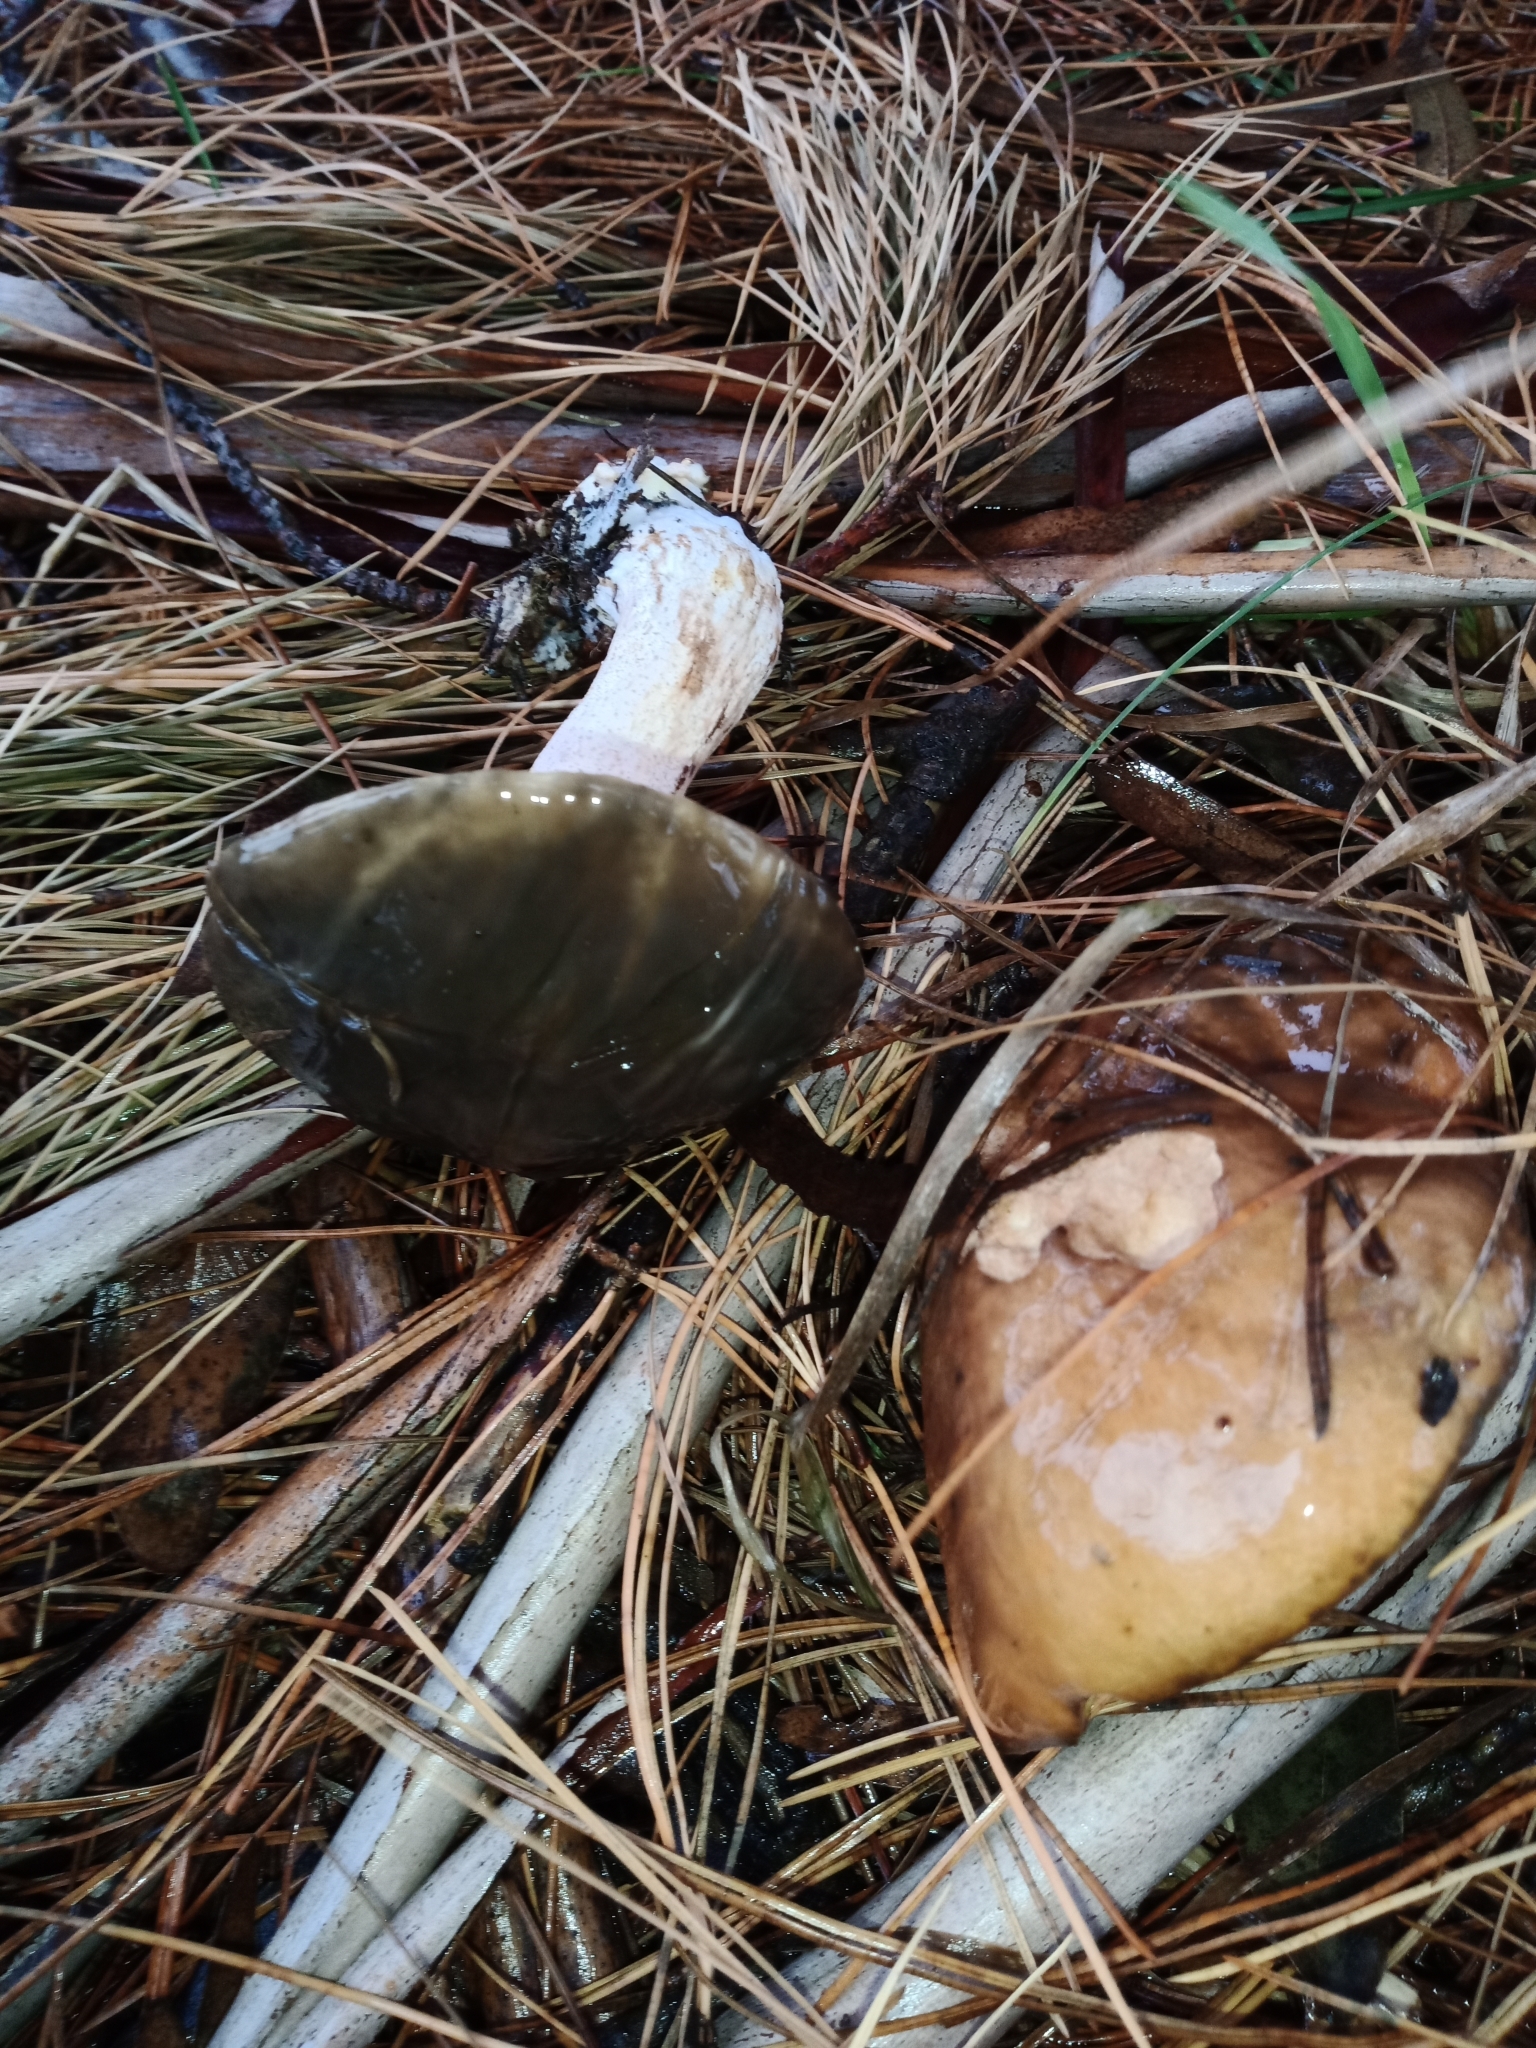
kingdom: Fungi
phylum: Basidiomycota
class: Agaricomycetes
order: Boletales
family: Suillaceae
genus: Suillus
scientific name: Suillus pungens
